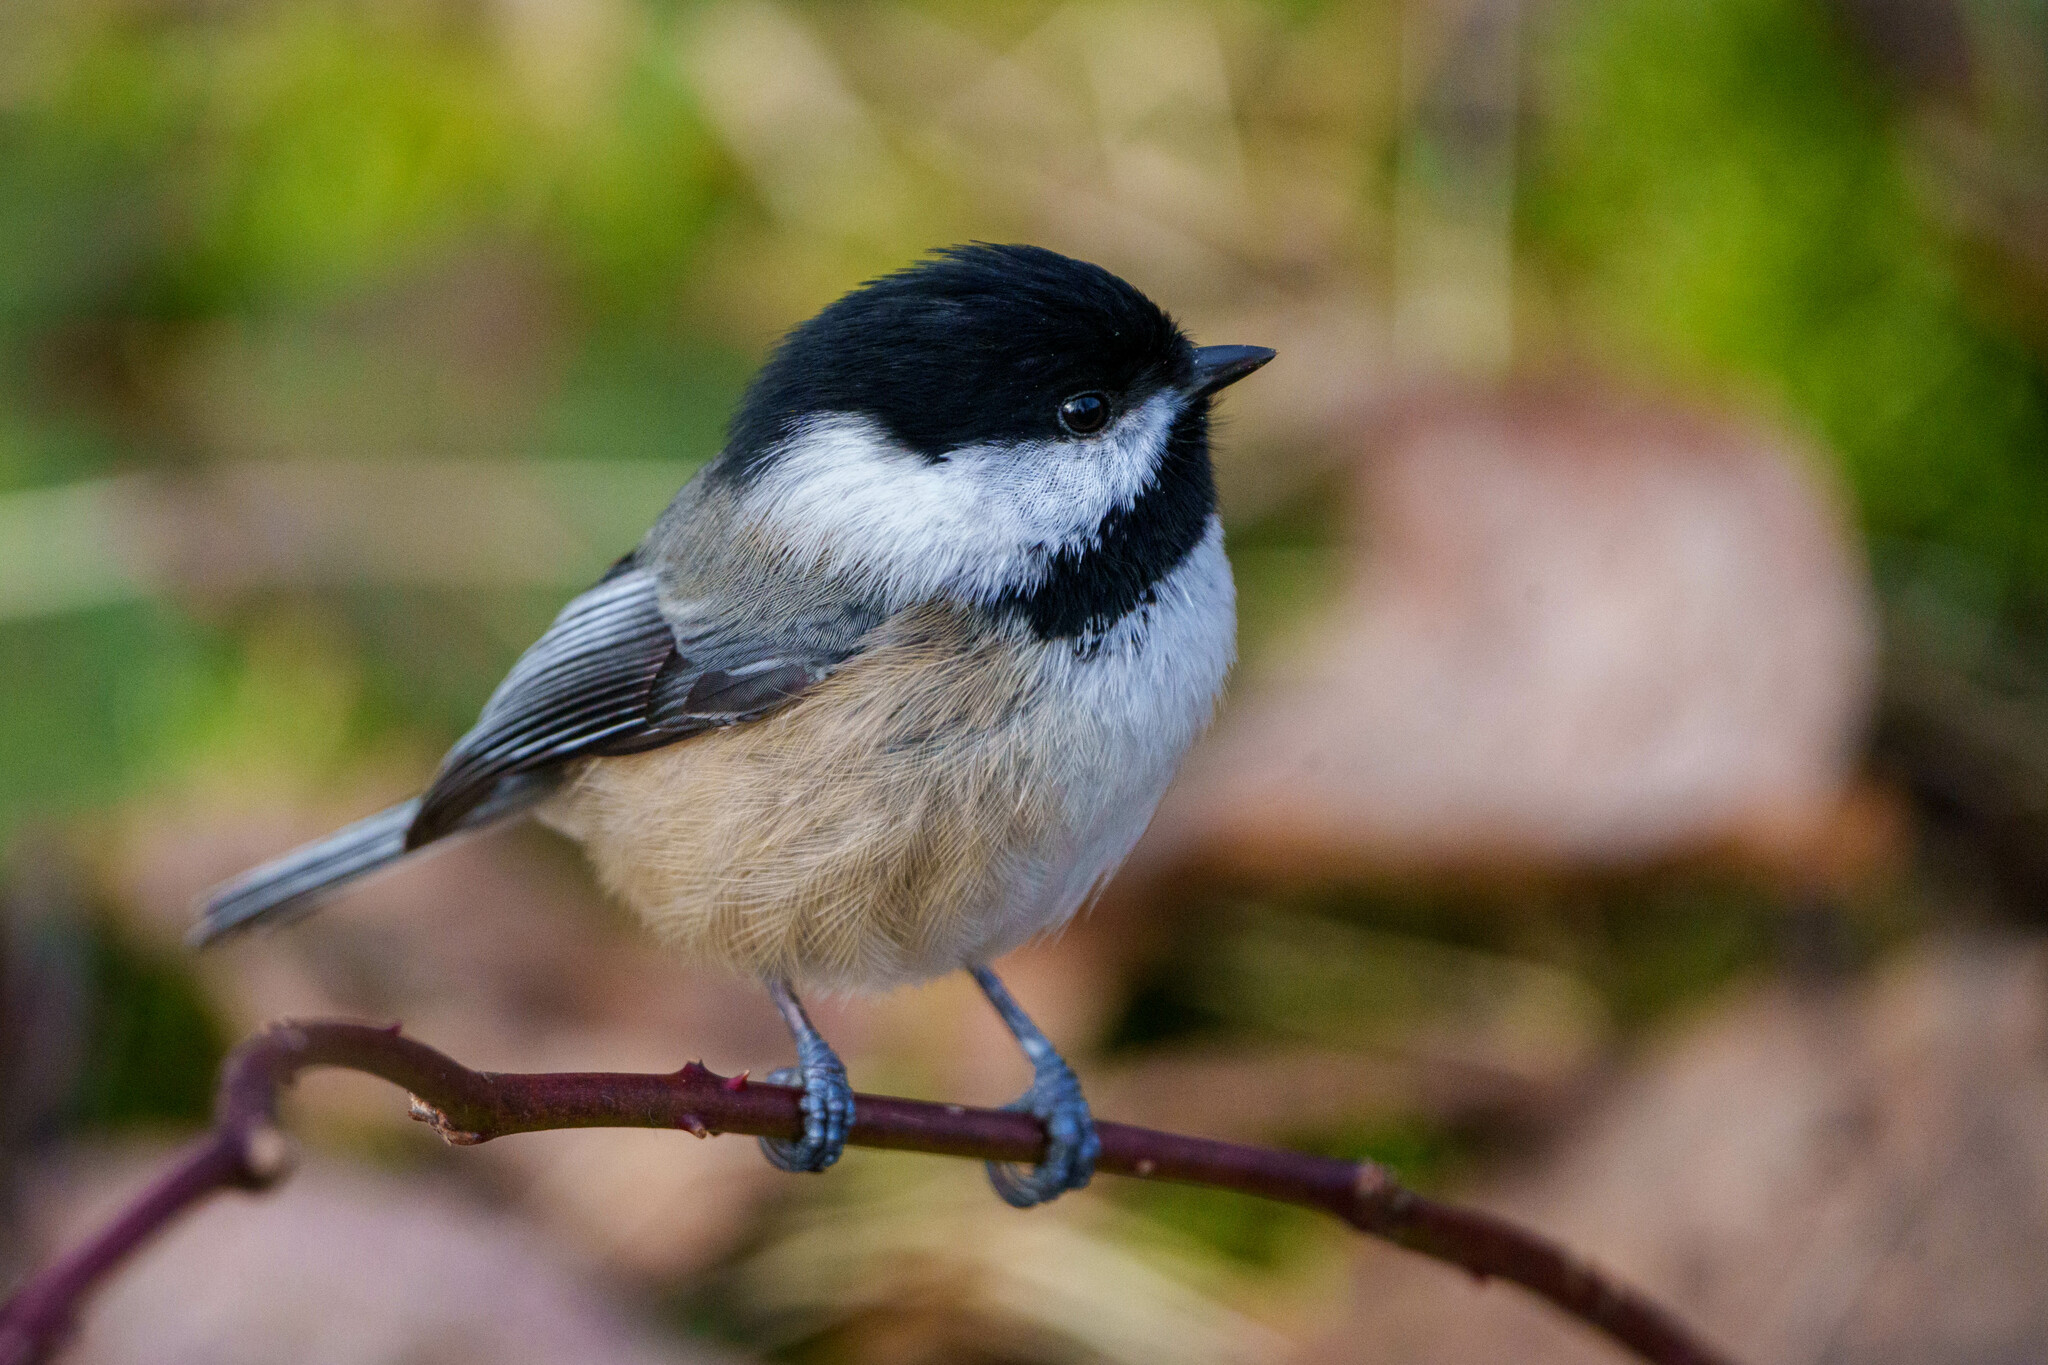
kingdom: Animalia
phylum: Chordata
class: Aves
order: Passeriformes
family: Paridae
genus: Poecile
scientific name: Poecile atricapillus
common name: Black-capped chickadee
